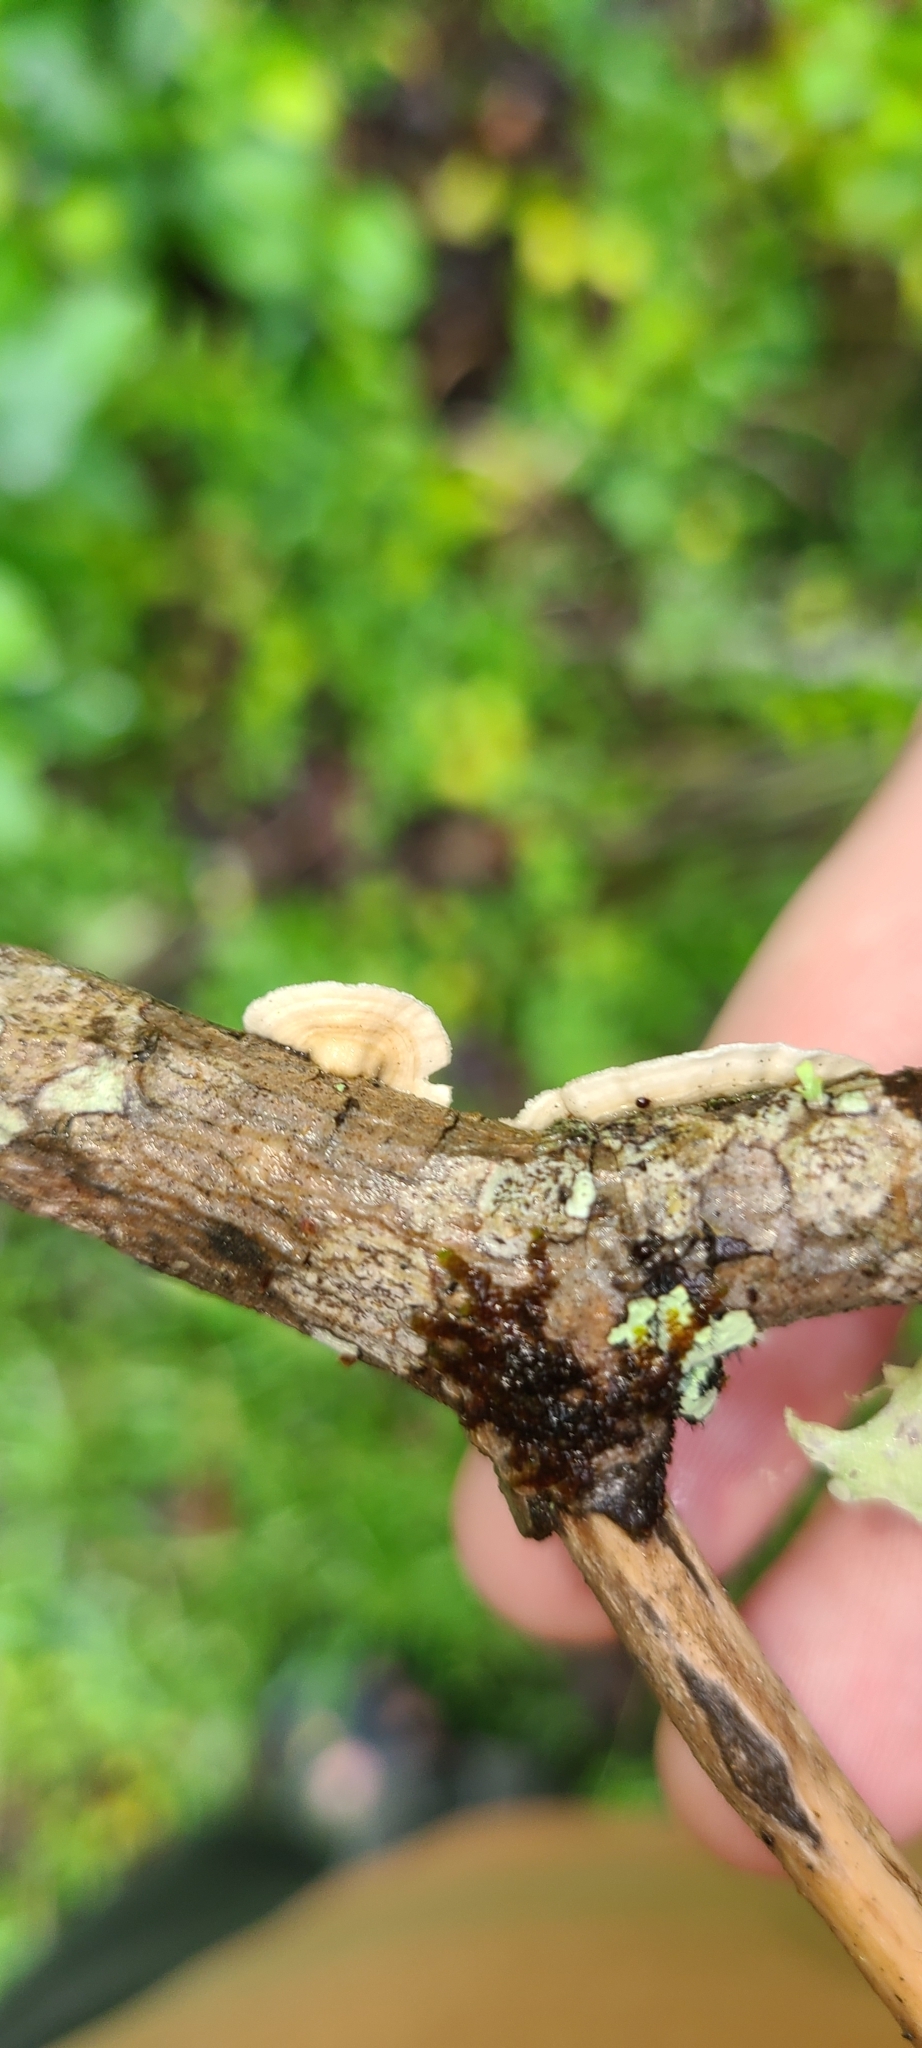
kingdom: Fungi
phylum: Basidiomycota
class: Agaricomycetes
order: Polyporales
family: Irpicaceae
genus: Byssomerulius
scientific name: Byssomerulius corium
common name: Netted crust
